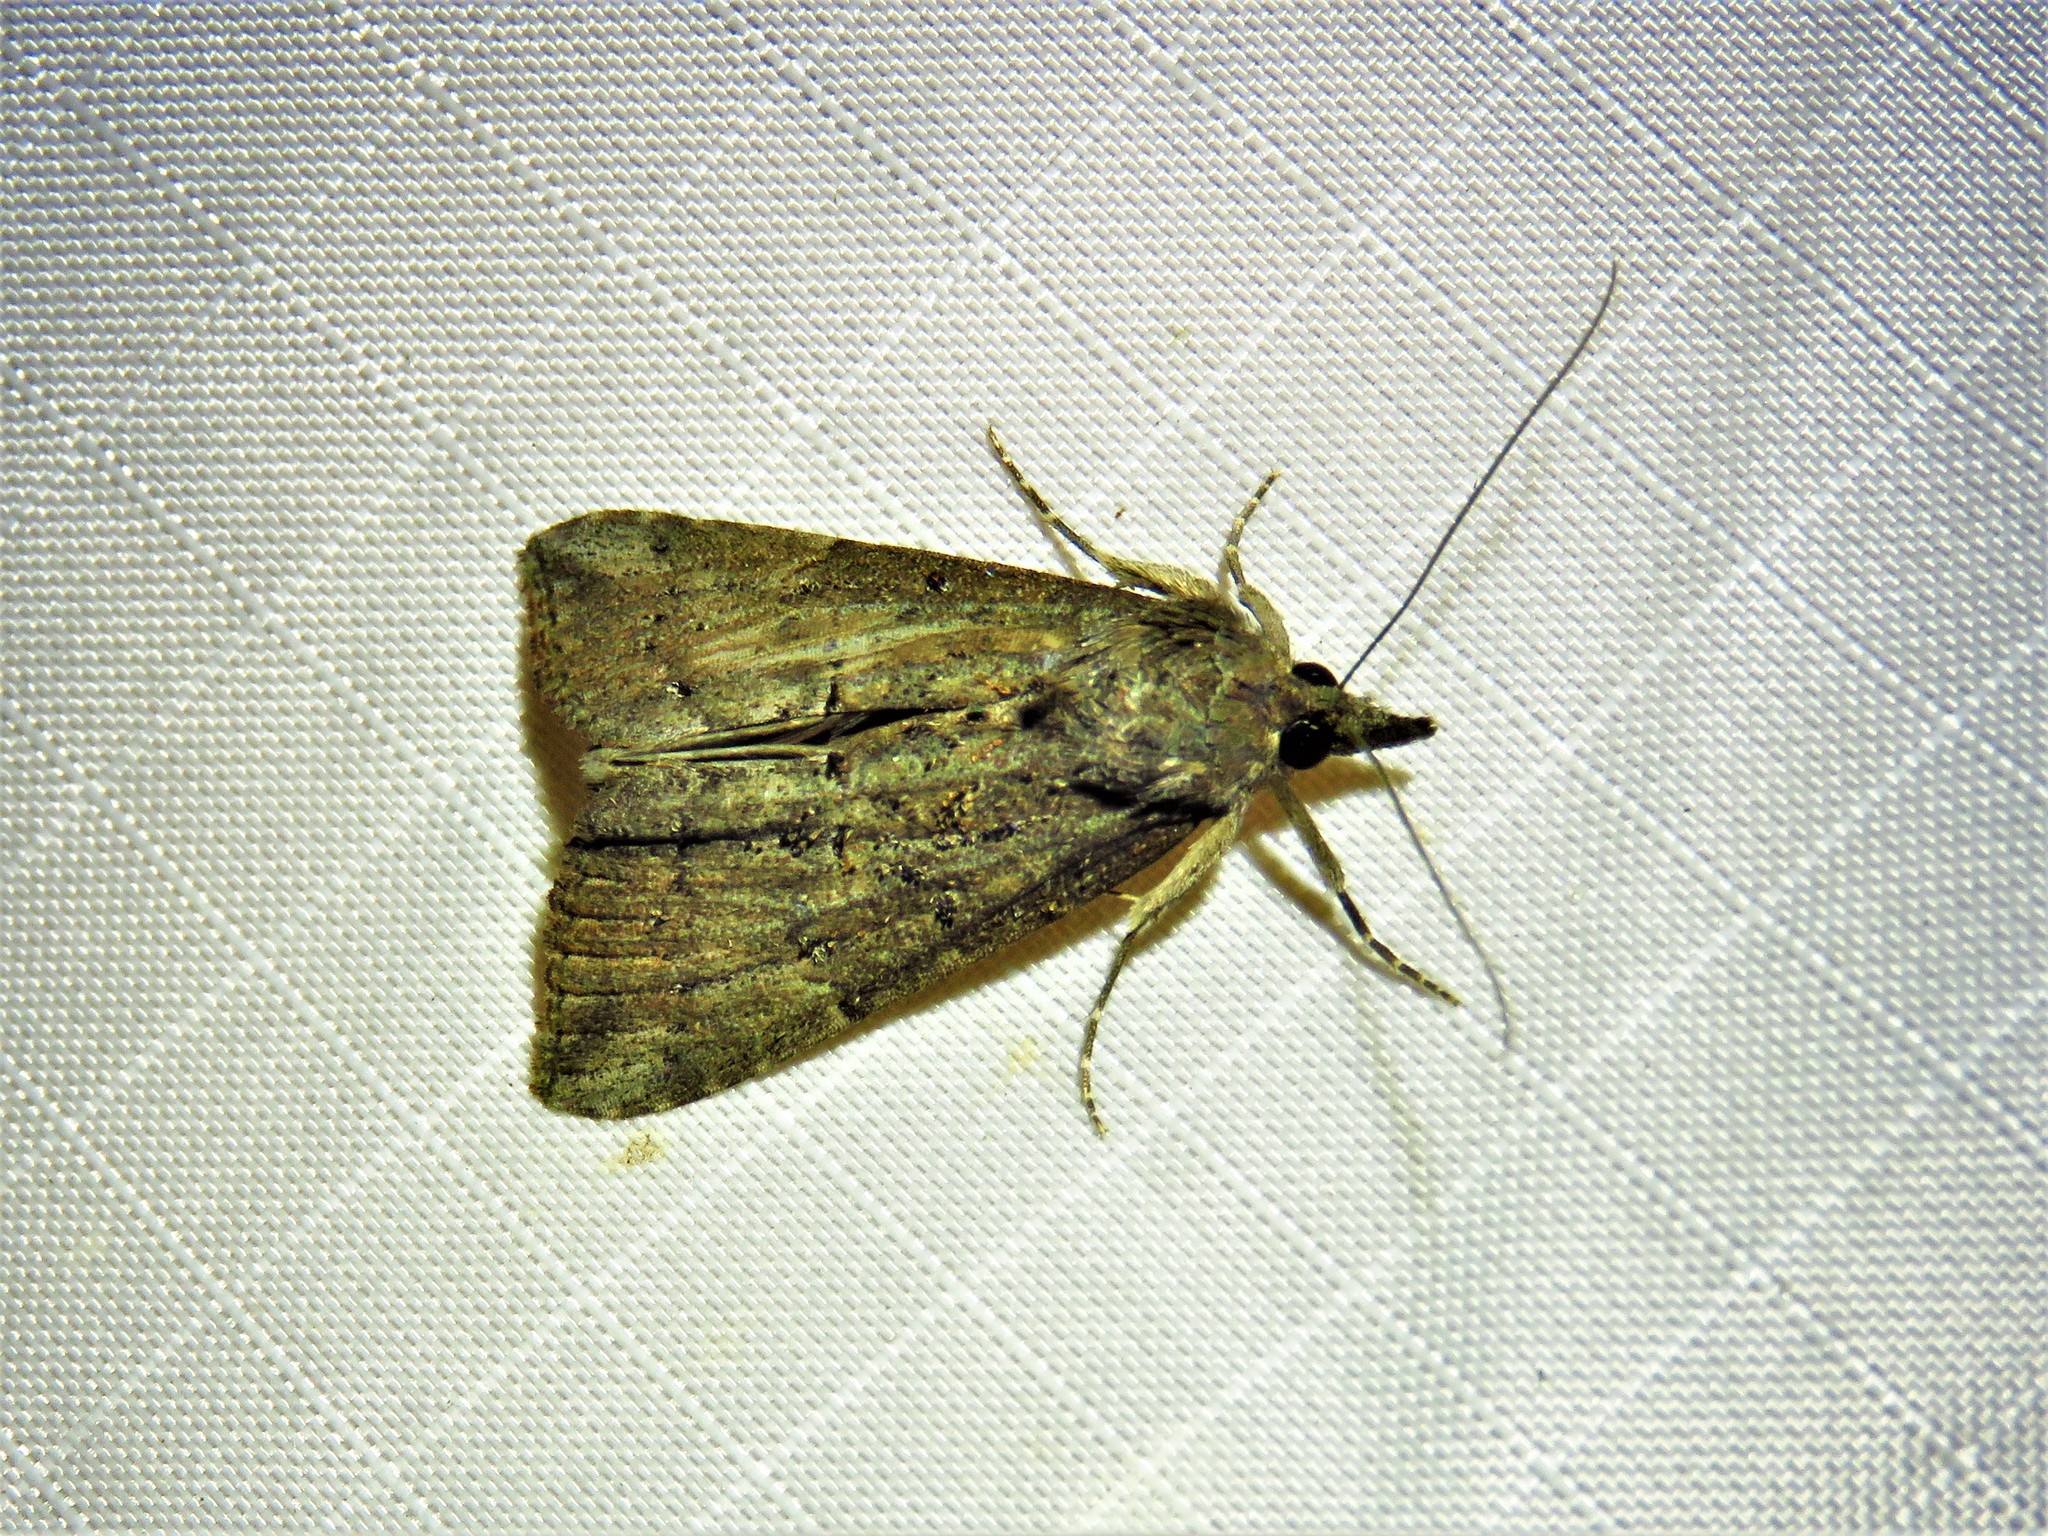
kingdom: Animalia
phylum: Arthropoda
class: Insecta
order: Lepidoptera
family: Erebidae
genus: Hypena
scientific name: Hypena scabra
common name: Green cloverworm
